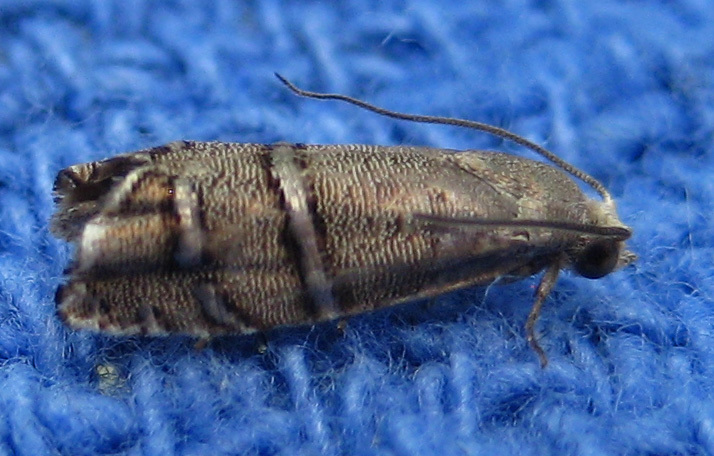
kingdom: Animalia
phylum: Arthropoda
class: Insecta
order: Lepidoptera
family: Tortricidae
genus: Cydia
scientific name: Cydia toreuta
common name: Eastern pine seedworm moth
